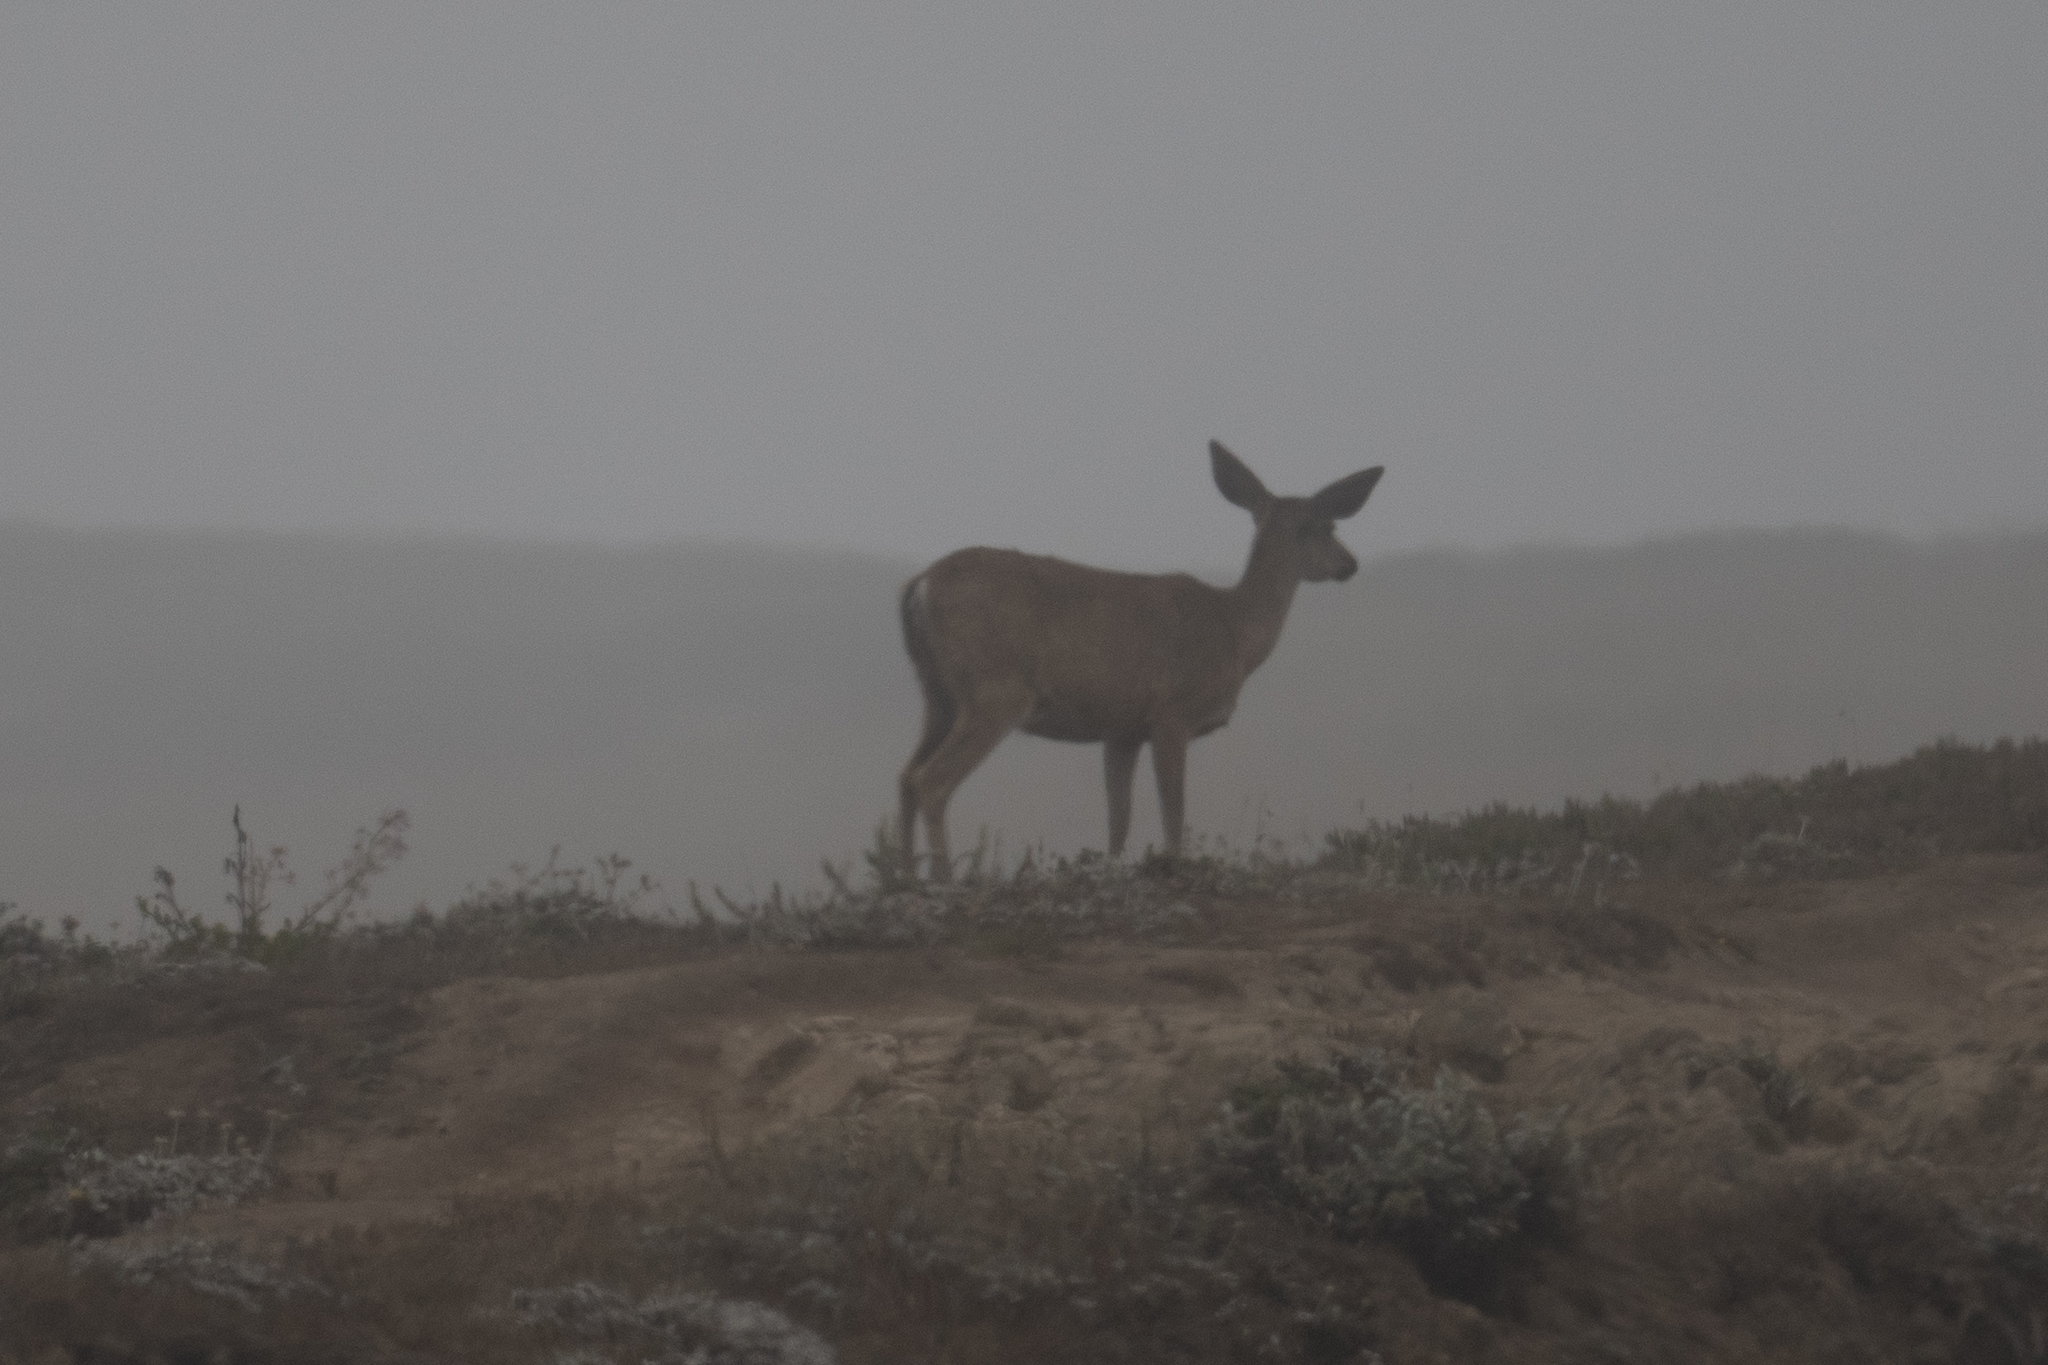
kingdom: Animalia
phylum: Chordata
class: Mammalia
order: Artiodactyla
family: Cervidae
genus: Odocoileus
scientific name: Odocoileus hemionus
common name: Mule deer
